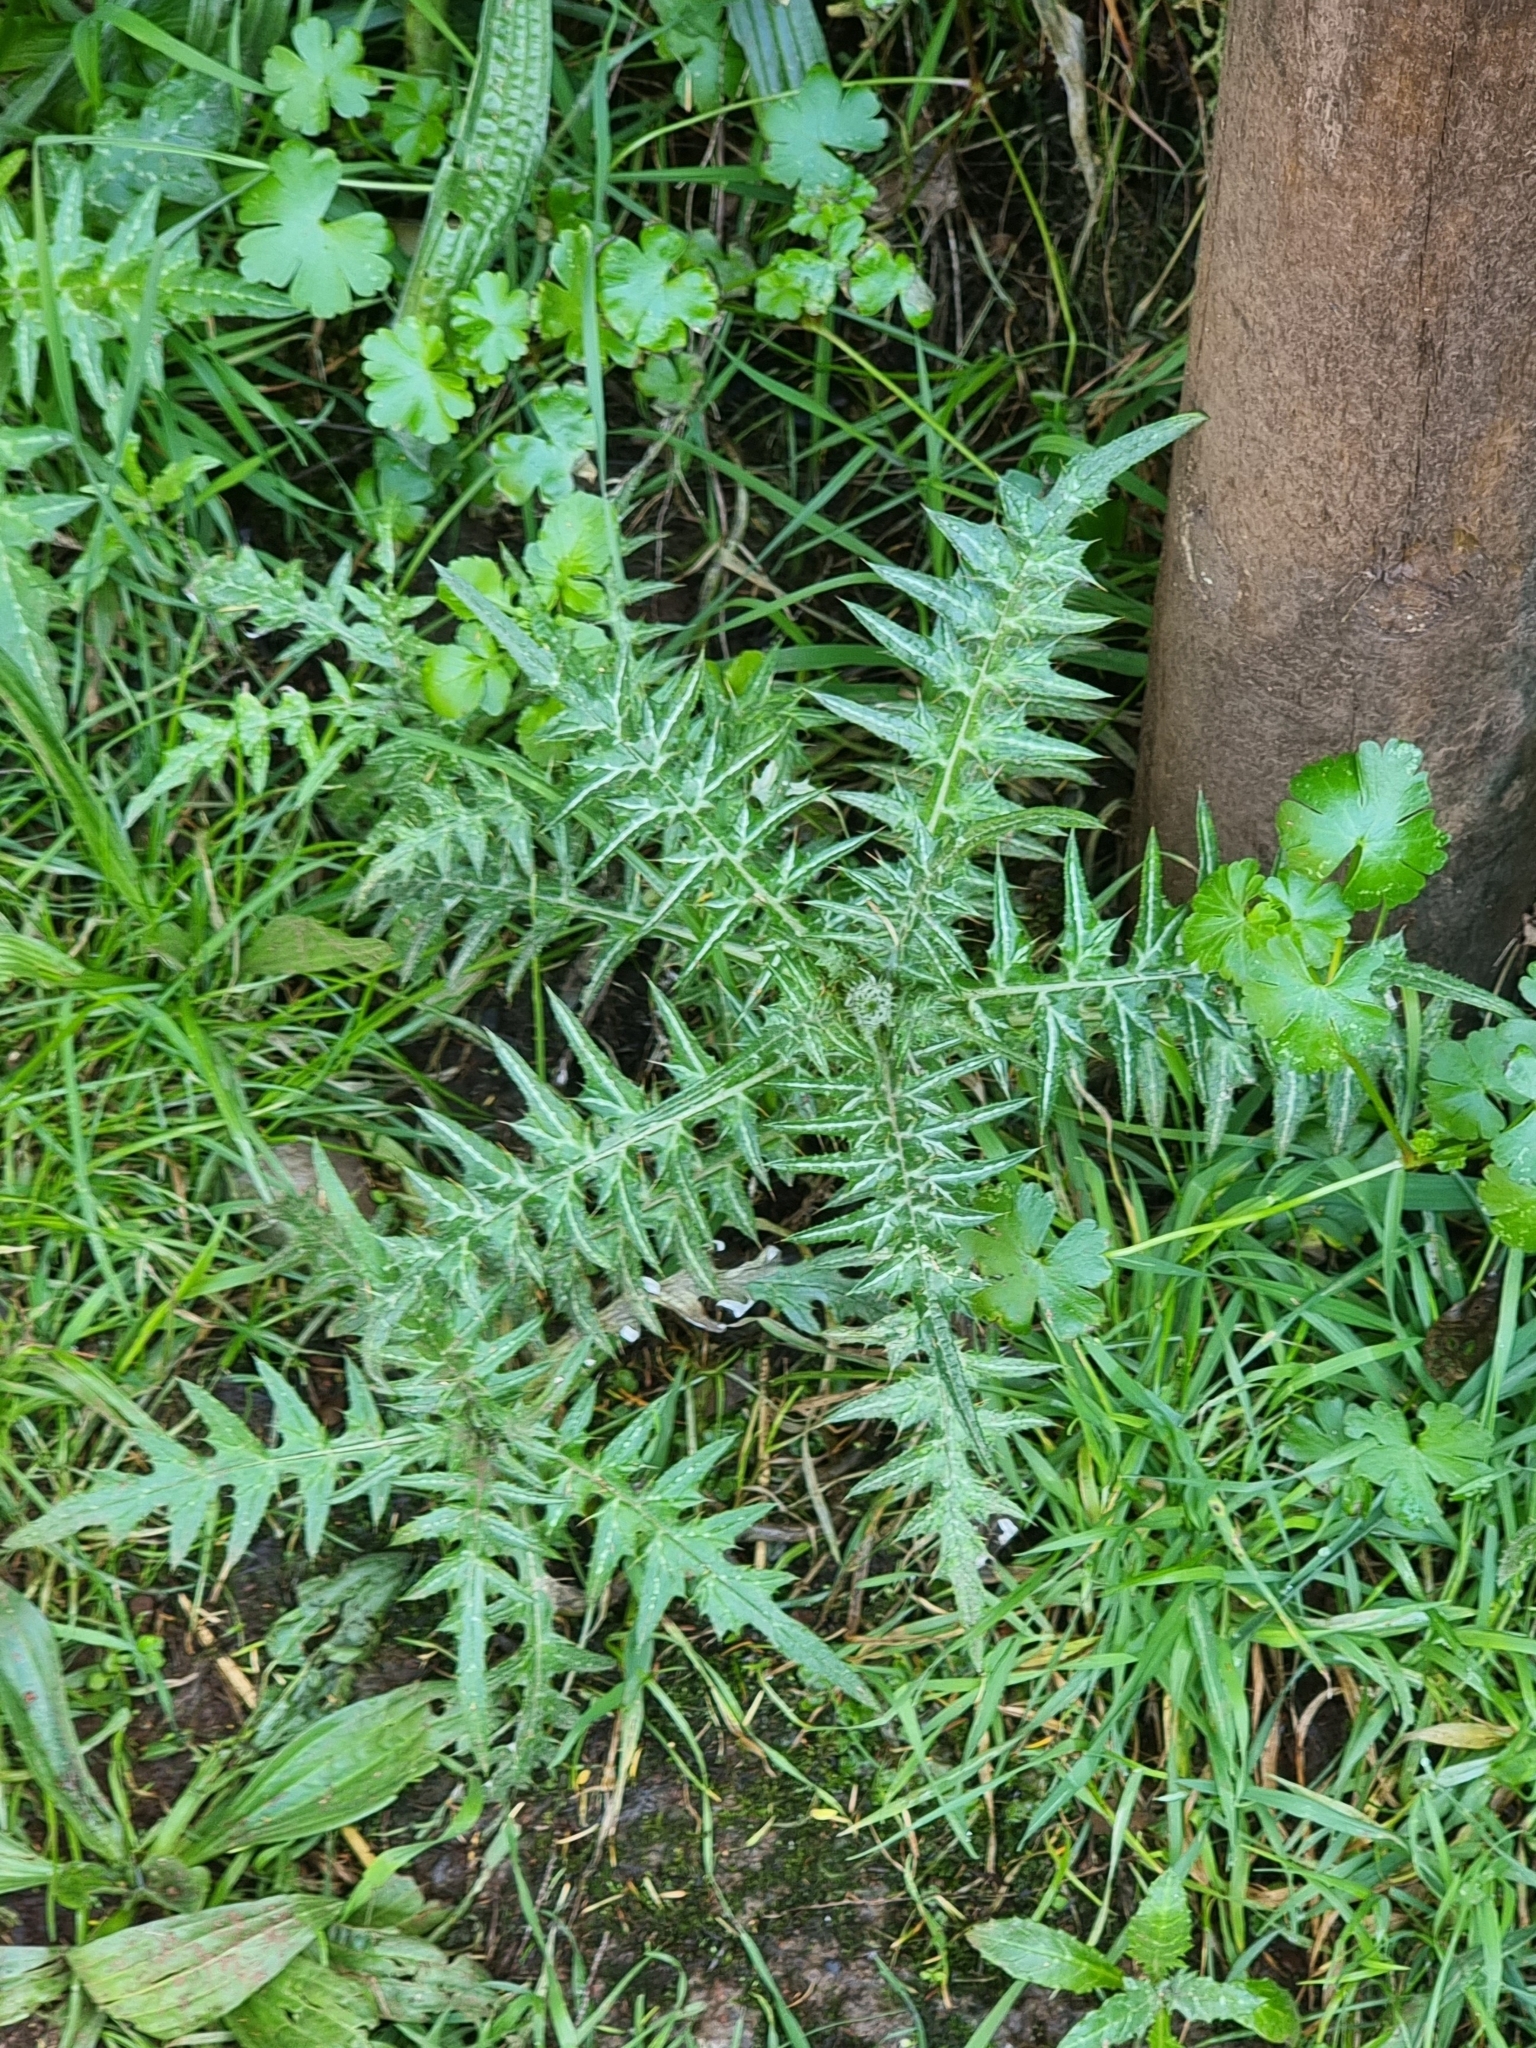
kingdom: Plantae
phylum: Tracheophyta
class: Magnoliopsida
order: Asterales
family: Asteraceae
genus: Galactites
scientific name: Galactites tomentosa
